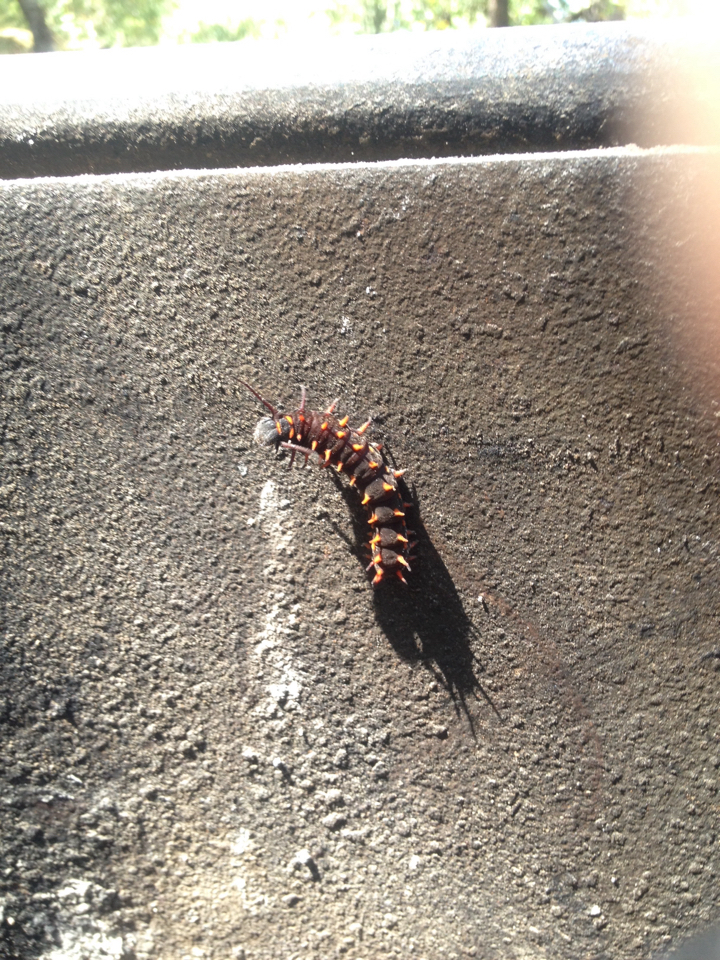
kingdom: Animalia
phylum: Arthropoda
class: Insecta
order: Lepidoptera
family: Papilionidae
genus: Battus
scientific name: Battus philenor
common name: Pipevine swallowtail
